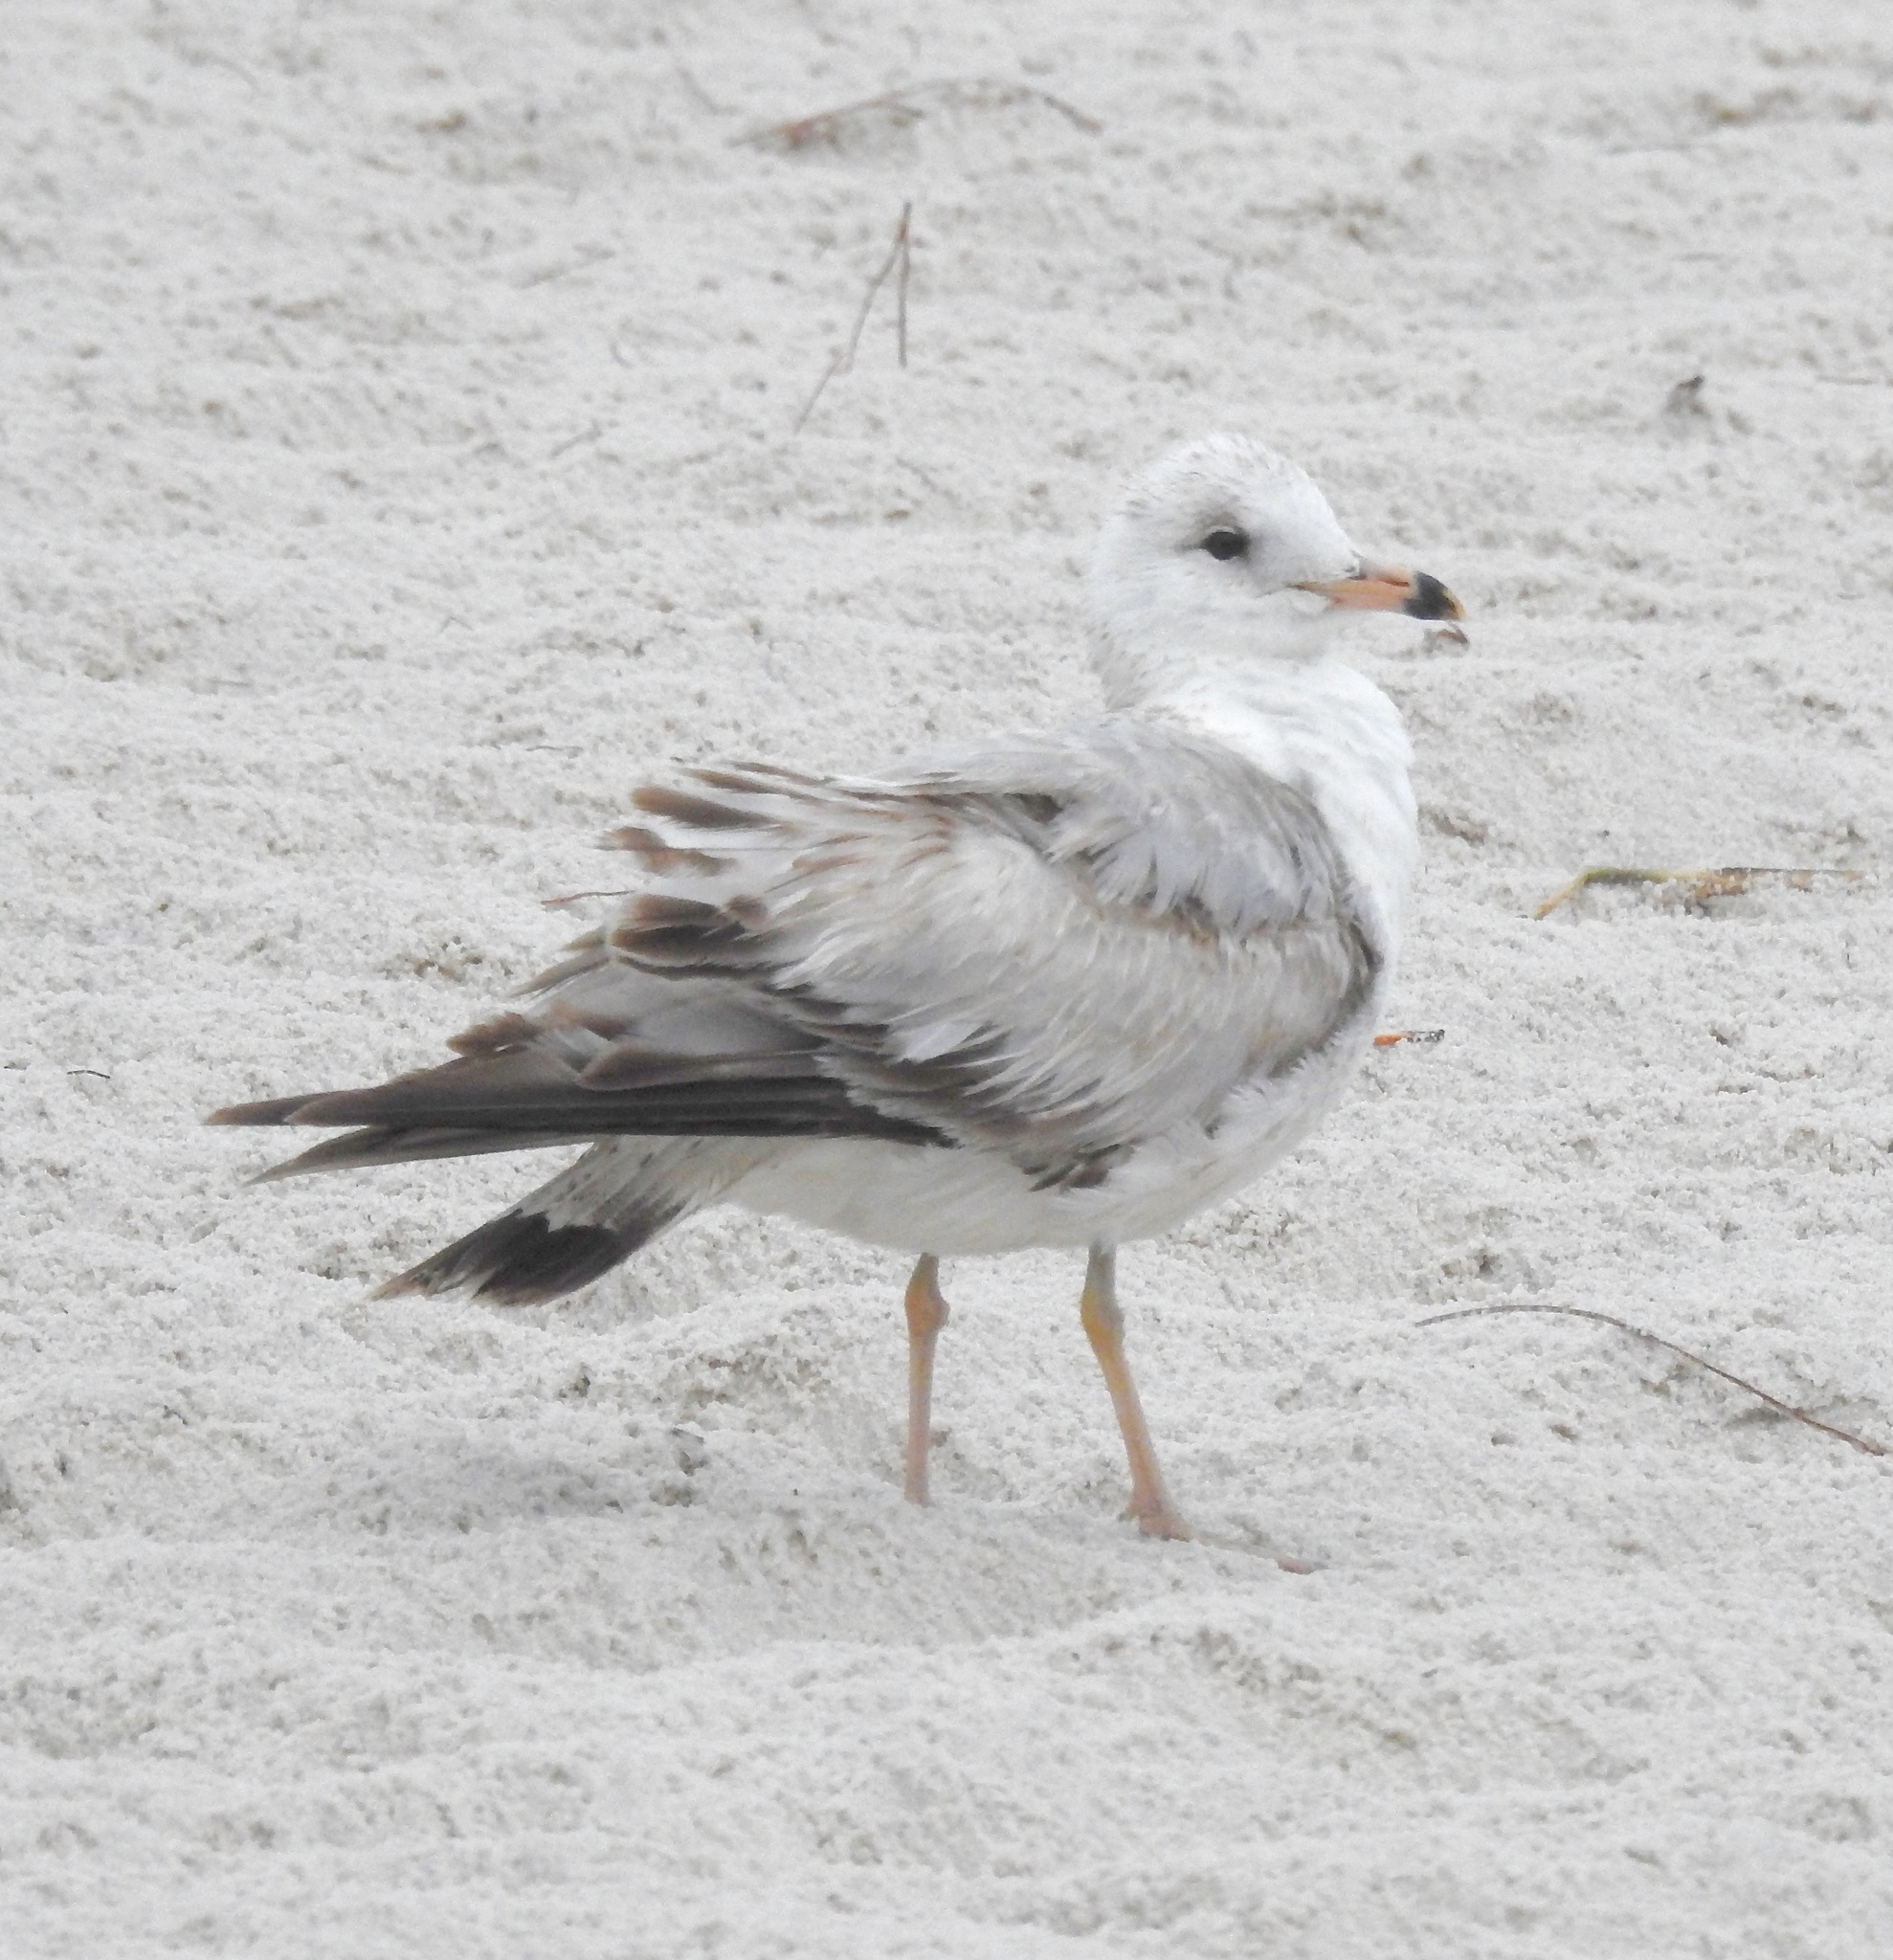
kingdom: Animalia
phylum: Chordata
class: Aves
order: Charadriiformes
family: Laridae
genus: Larus
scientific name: Larus delawarensis
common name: Ring-billed gull
